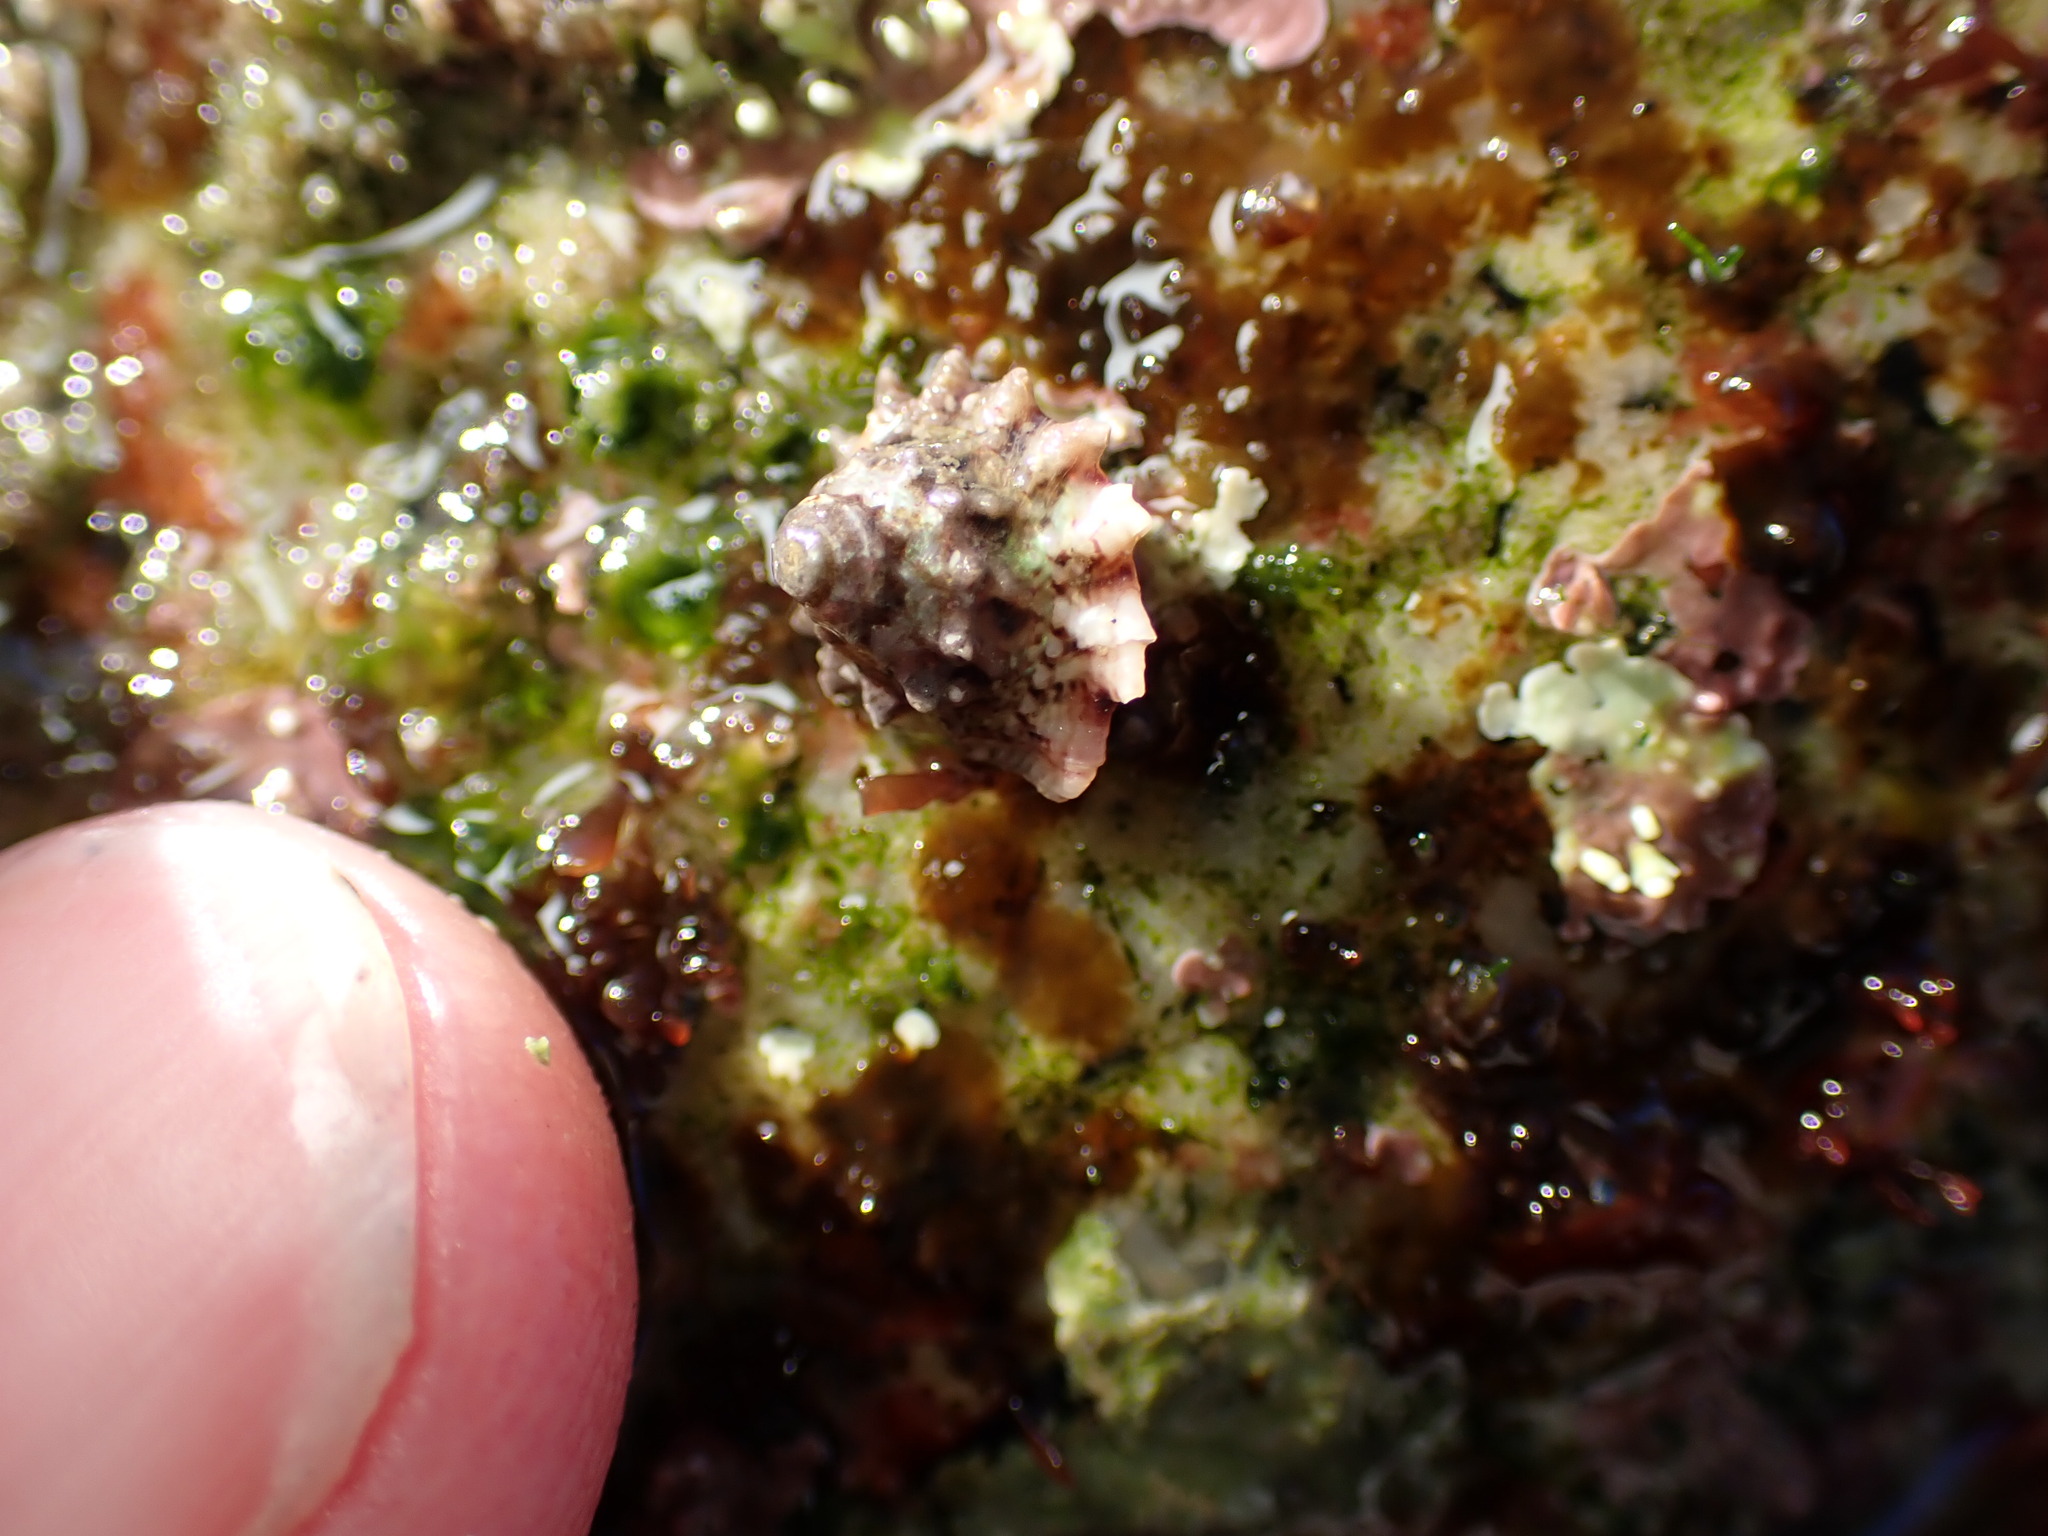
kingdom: Animalia
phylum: Mollusca
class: Gastropoda
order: Trochida
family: Turbinidae
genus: Megastraea
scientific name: Megastraea undosa
